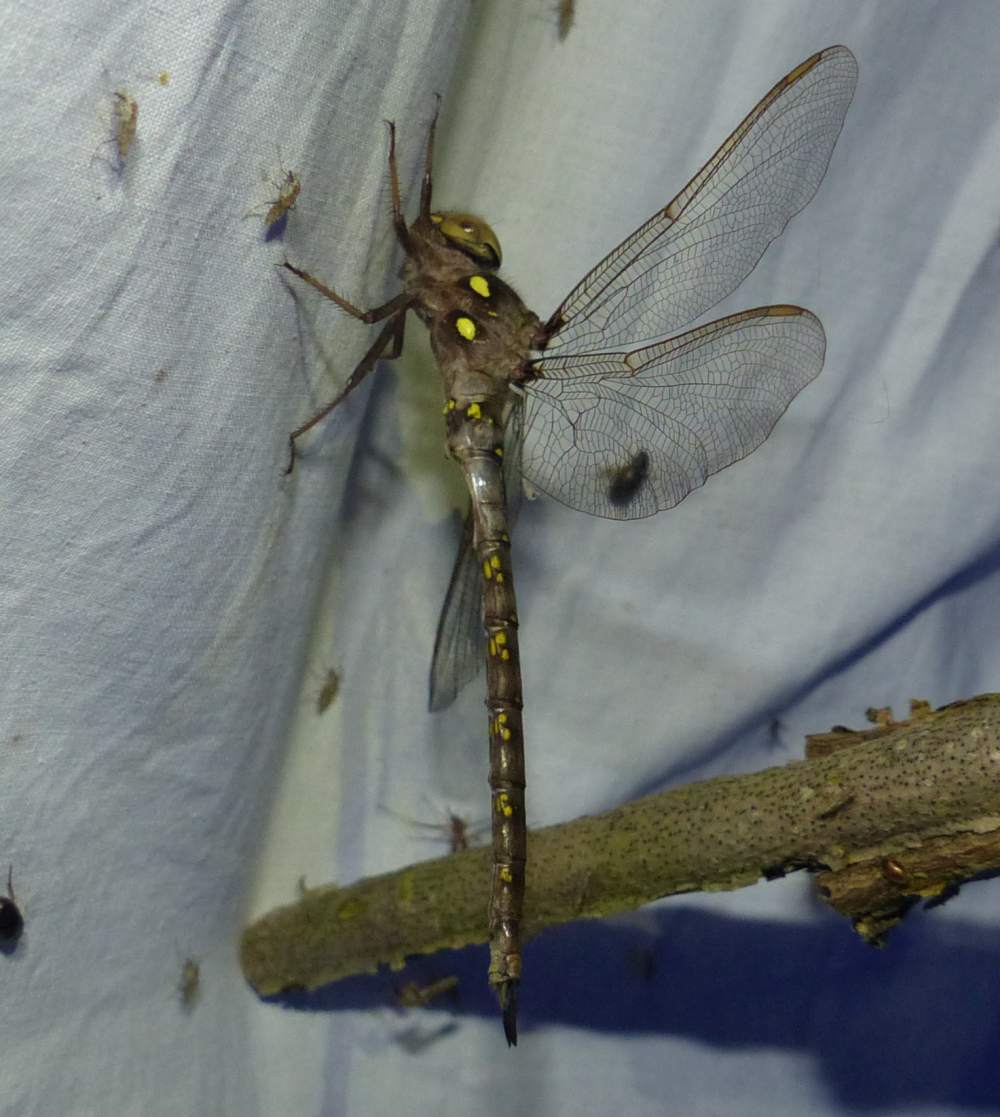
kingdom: Animalia
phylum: Arthropoda
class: Insecta
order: Odonata
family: Aeshnidae
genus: Boyeria
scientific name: Boyeria vinosa
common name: Fawn darner
